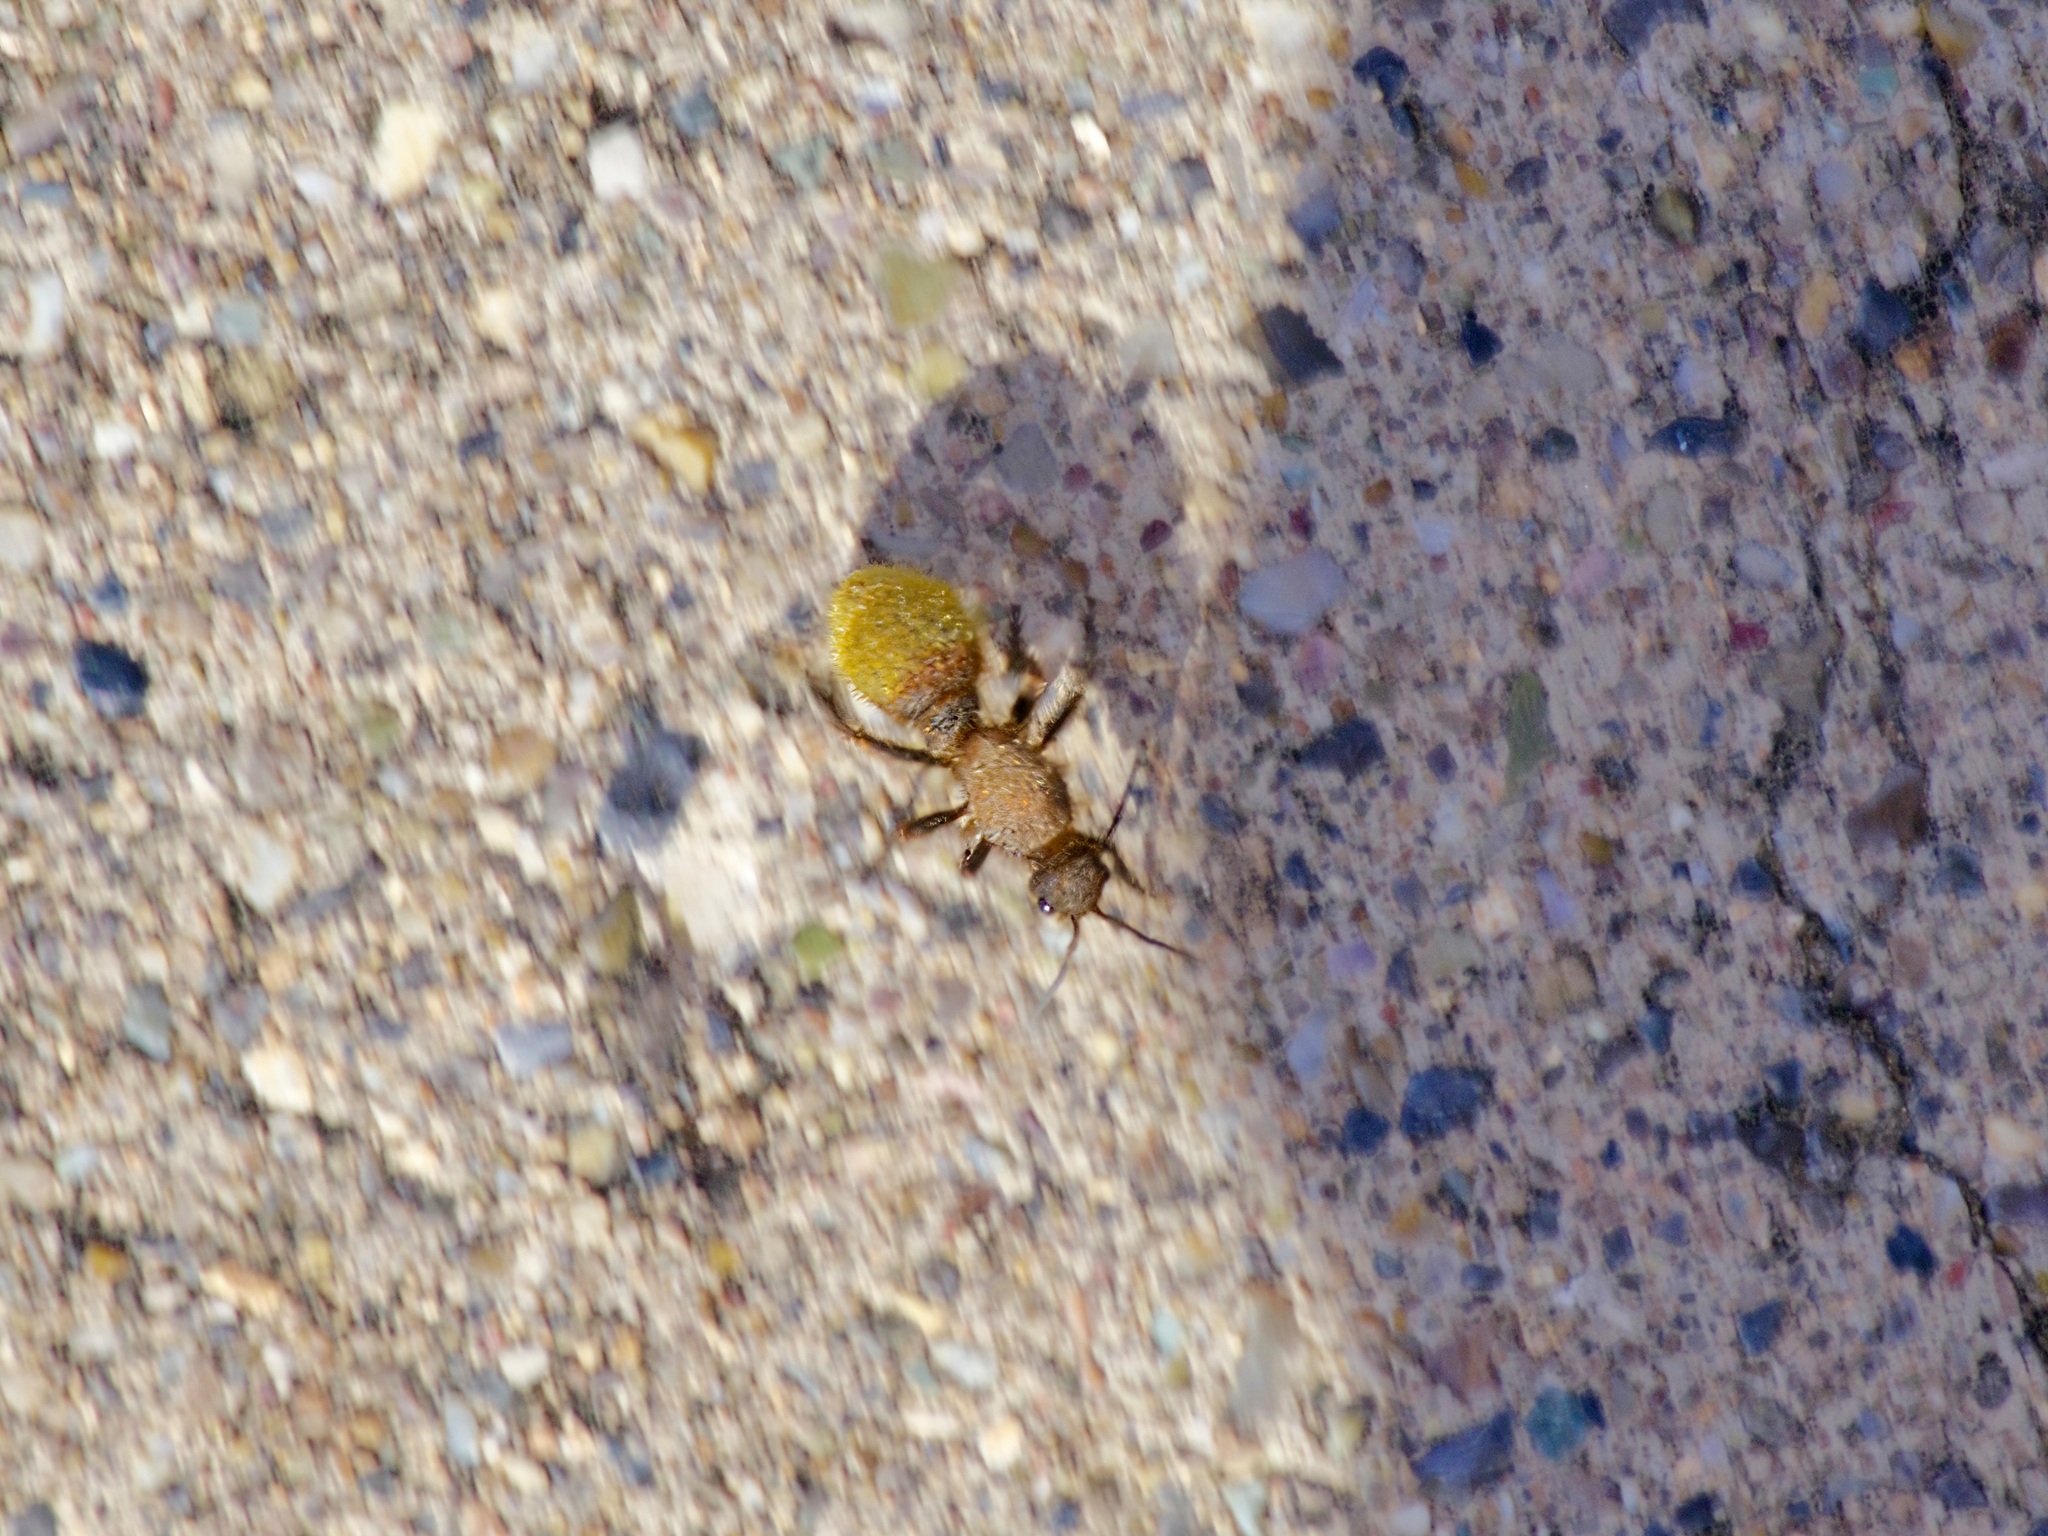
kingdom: Animalia
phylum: Arthropoda
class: Insecta
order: Hymenoptera
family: Mutillidae
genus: Dasymutilla
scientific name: Dasymutilla
